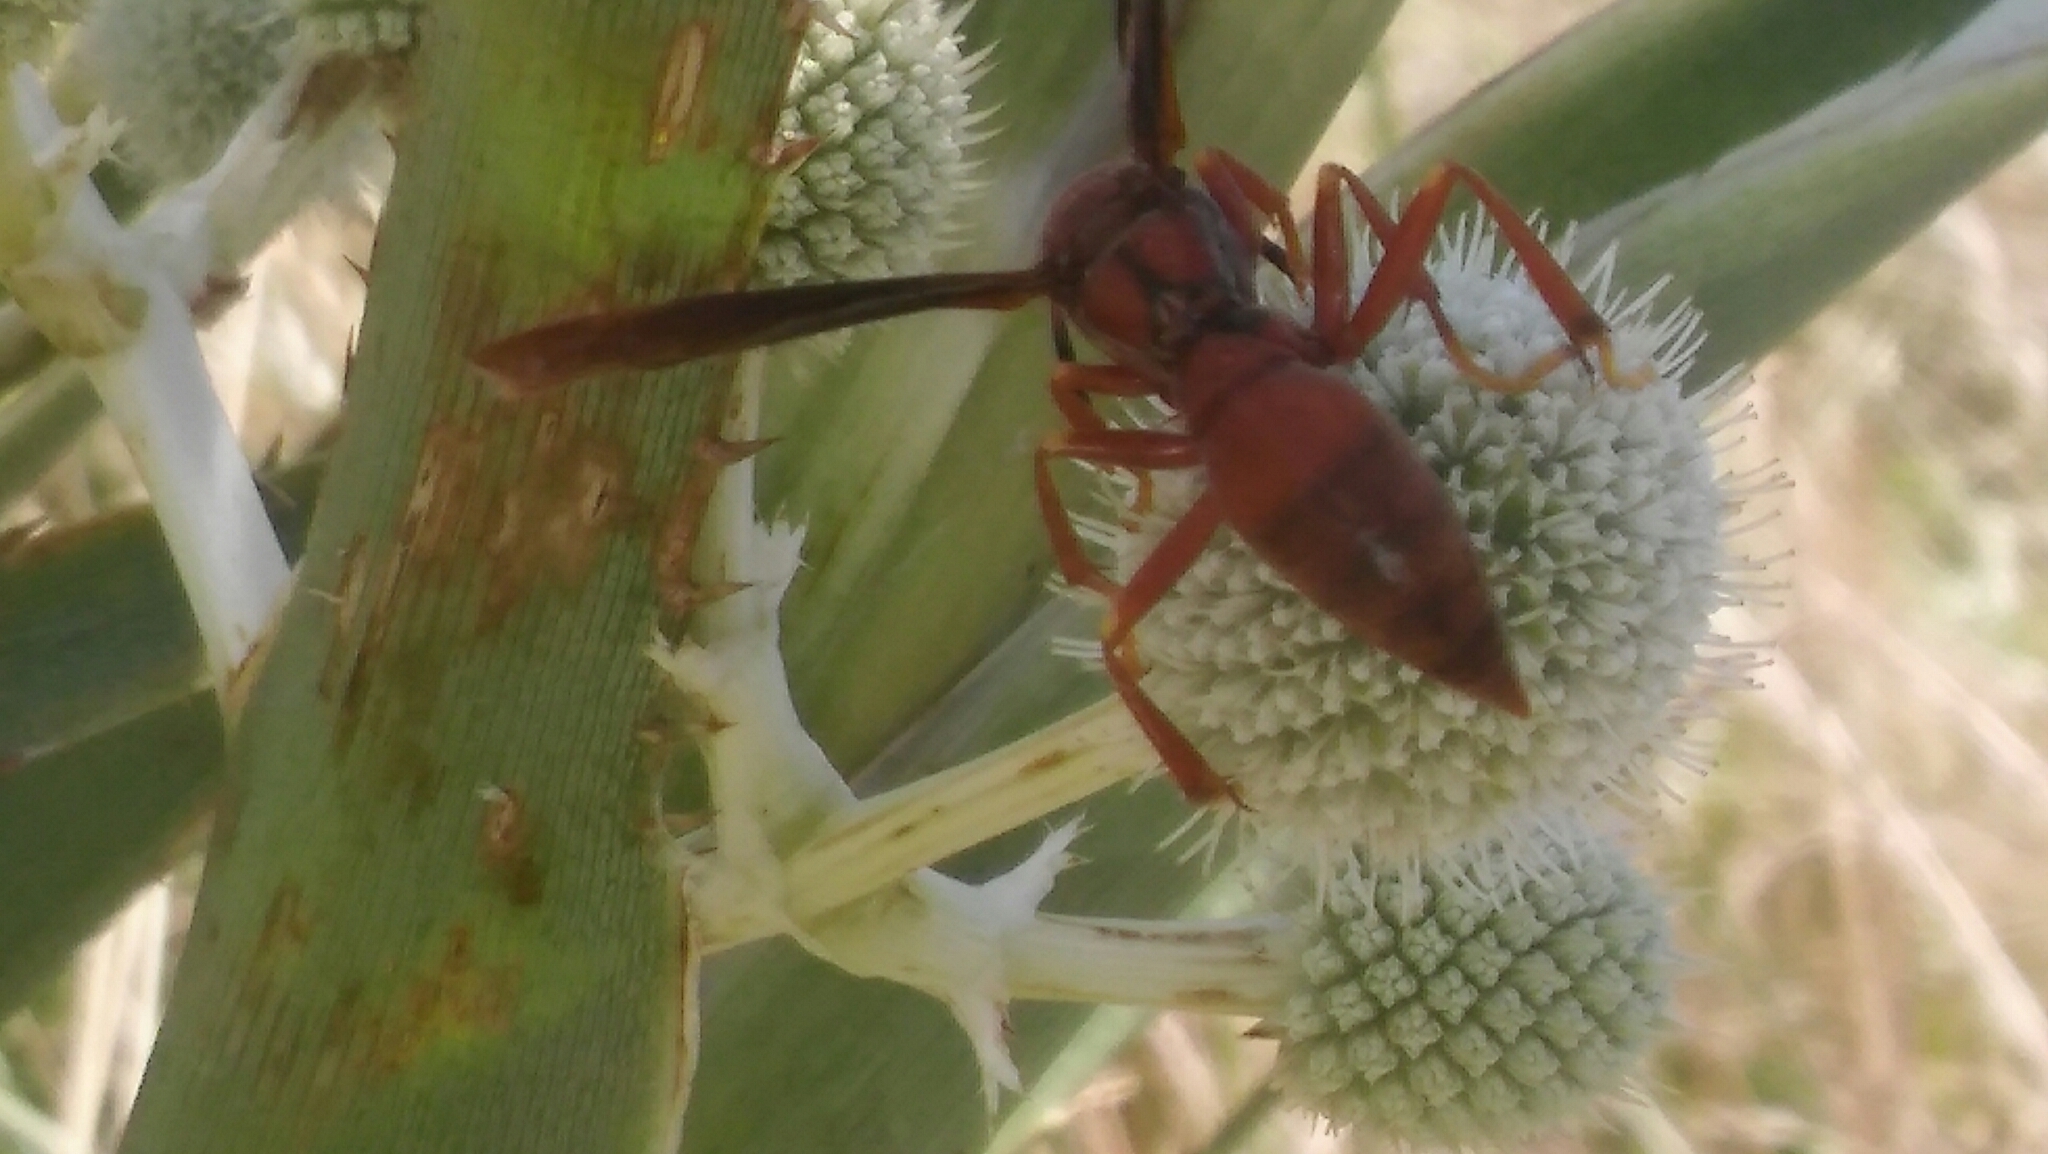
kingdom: Animalia
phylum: Arthropoda
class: Insecta
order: Hymenoptera
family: Eumenidae
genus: Polistes
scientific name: Polistes canadensis
